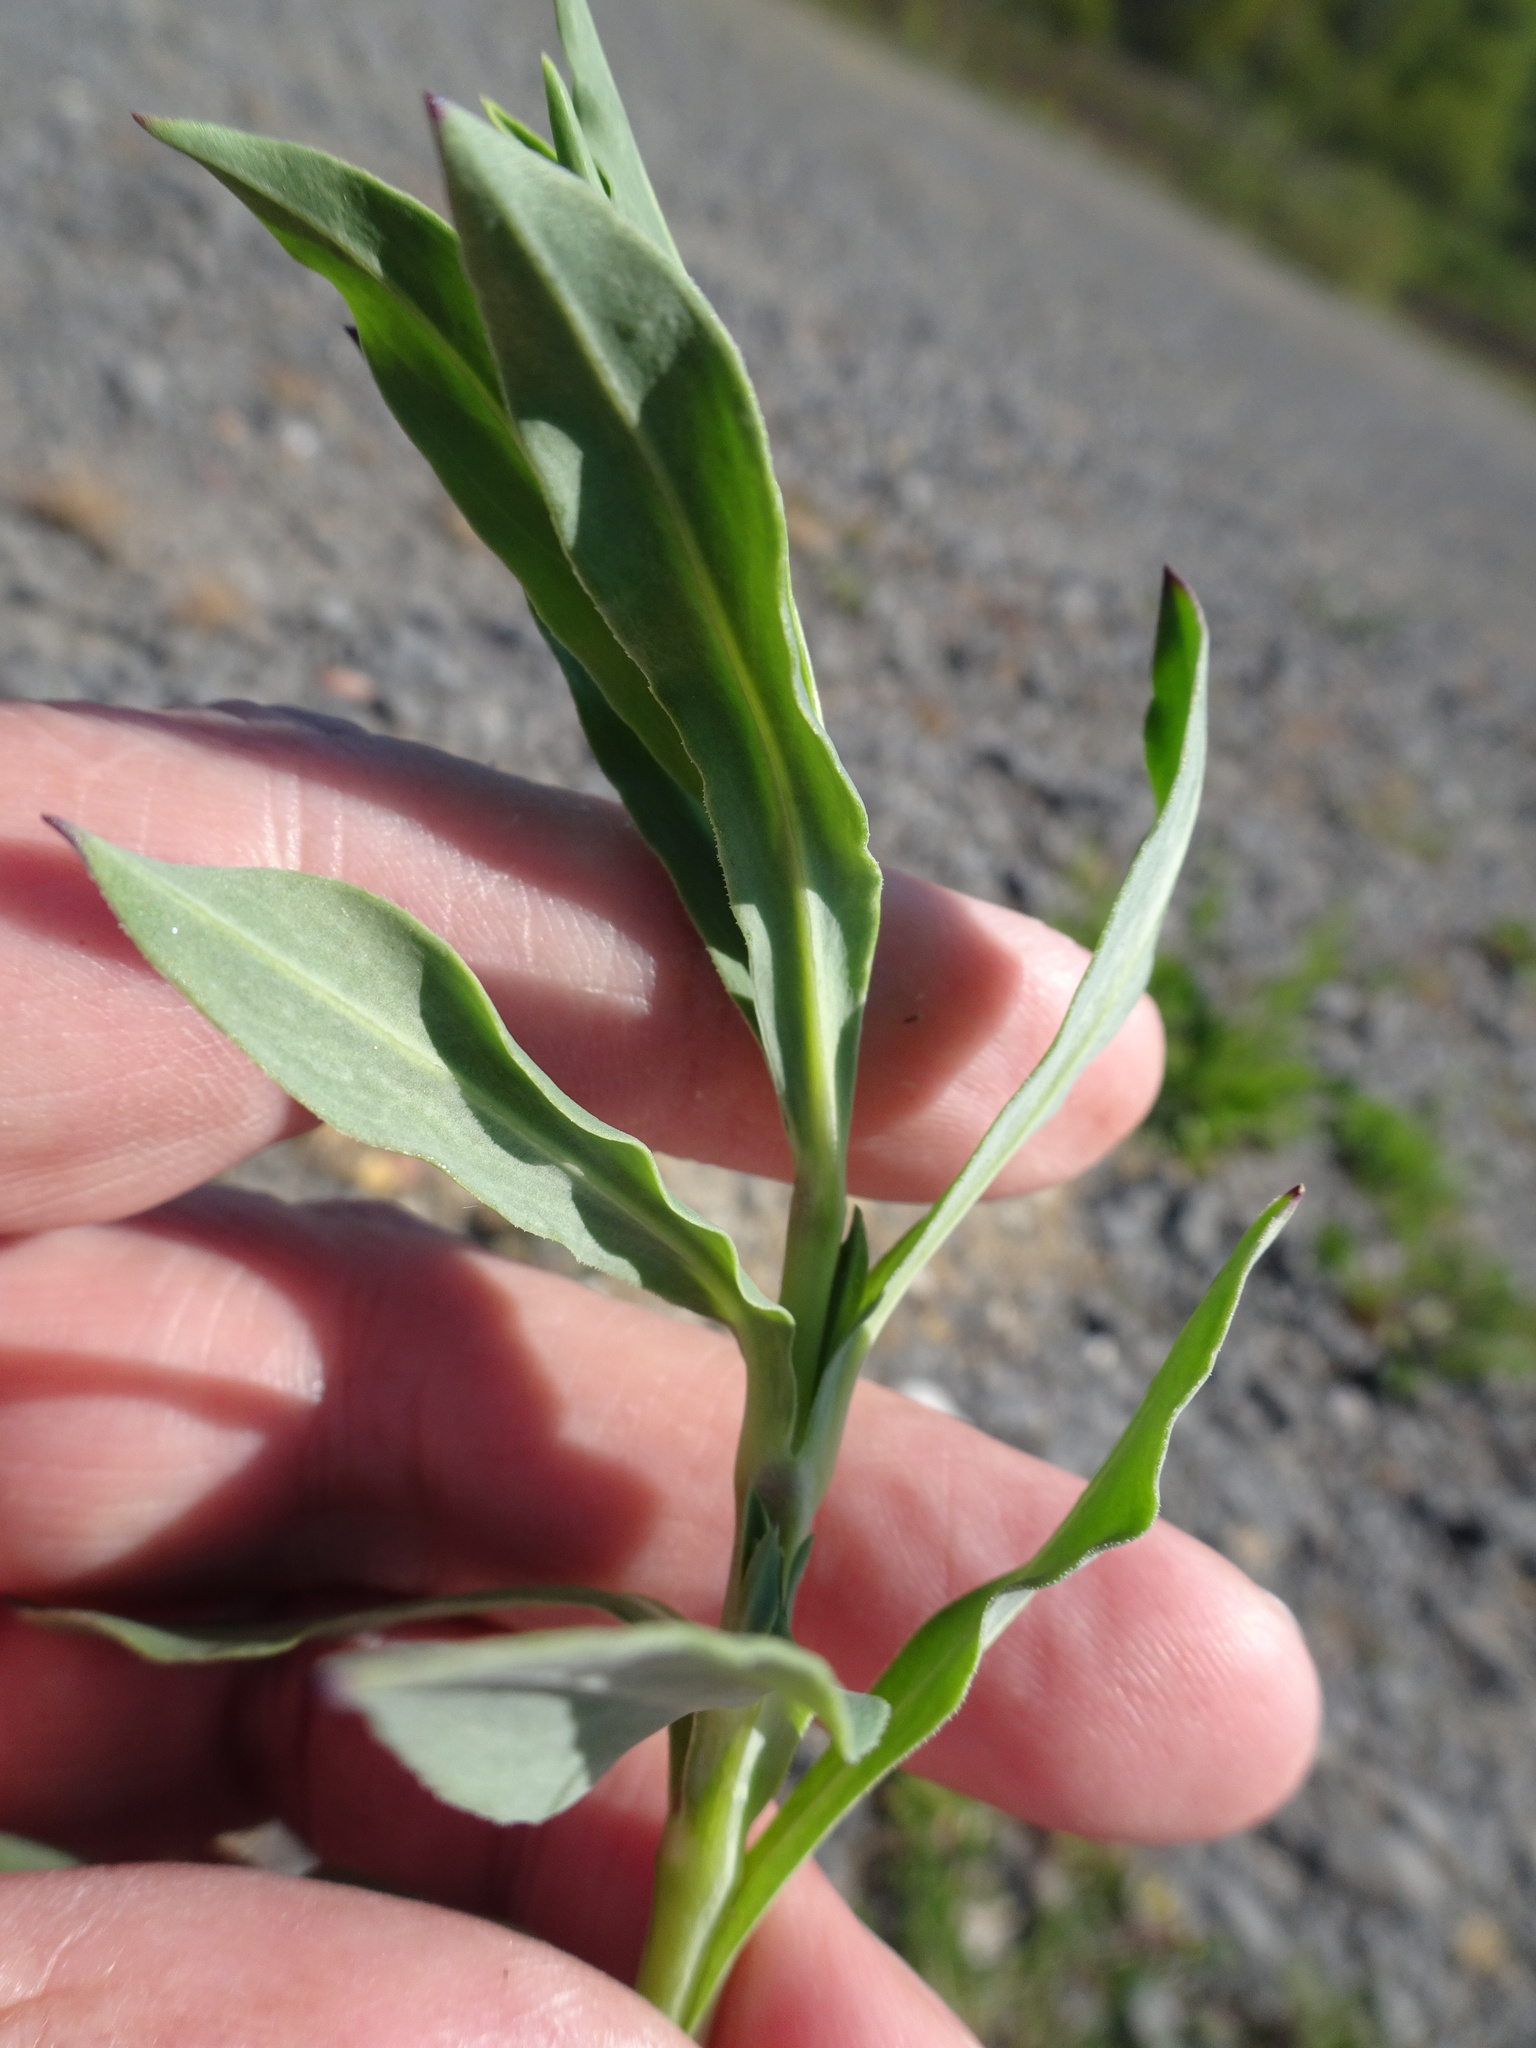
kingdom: Plantae
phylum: Tracheophyta
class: Magnoliopsida
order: Caryophyllales
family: Caryophyllaceae
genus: Silene
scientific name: Silene vulgaris
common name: Bladder campion
